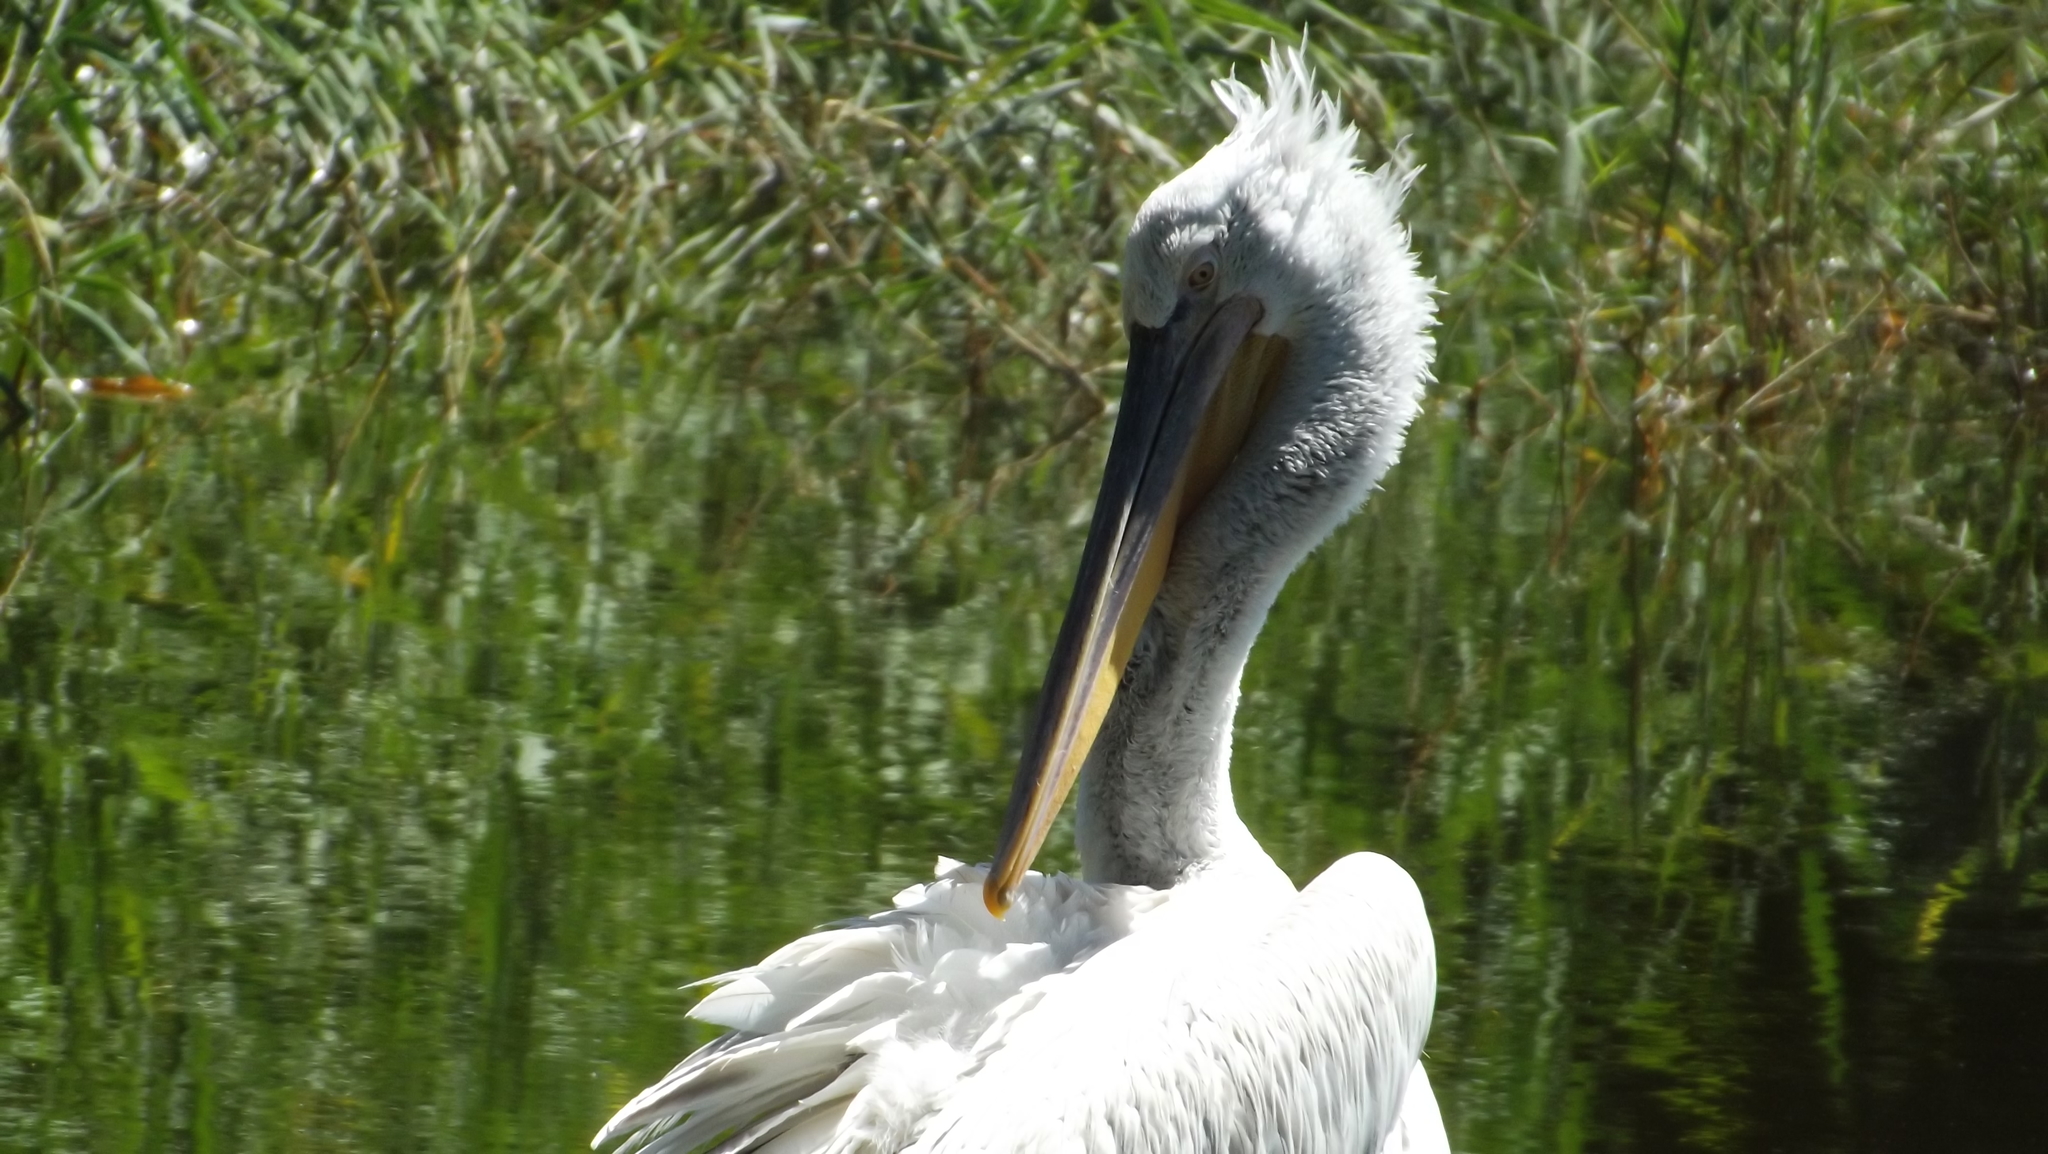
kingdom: Animalia
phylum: Chordata
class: Aves
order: Pelecaniformes
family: Pelecanidae
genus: Pelecanus
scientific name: Pelecanus crispus
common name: Dalmatian pelican
